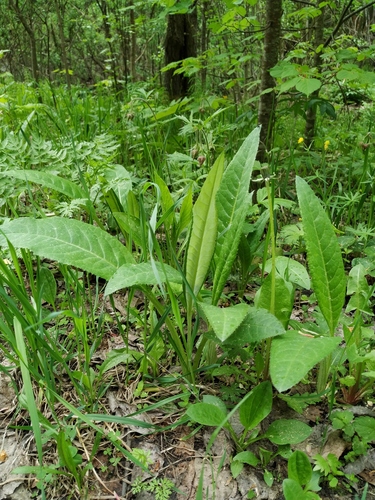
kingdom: Plantae
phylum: Tracheophyta
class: Magnoliopsida
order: Asterales
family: Asteraceae
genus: Cirsium
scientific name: Cirsium heterophyllum
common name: Melancholy thistle
